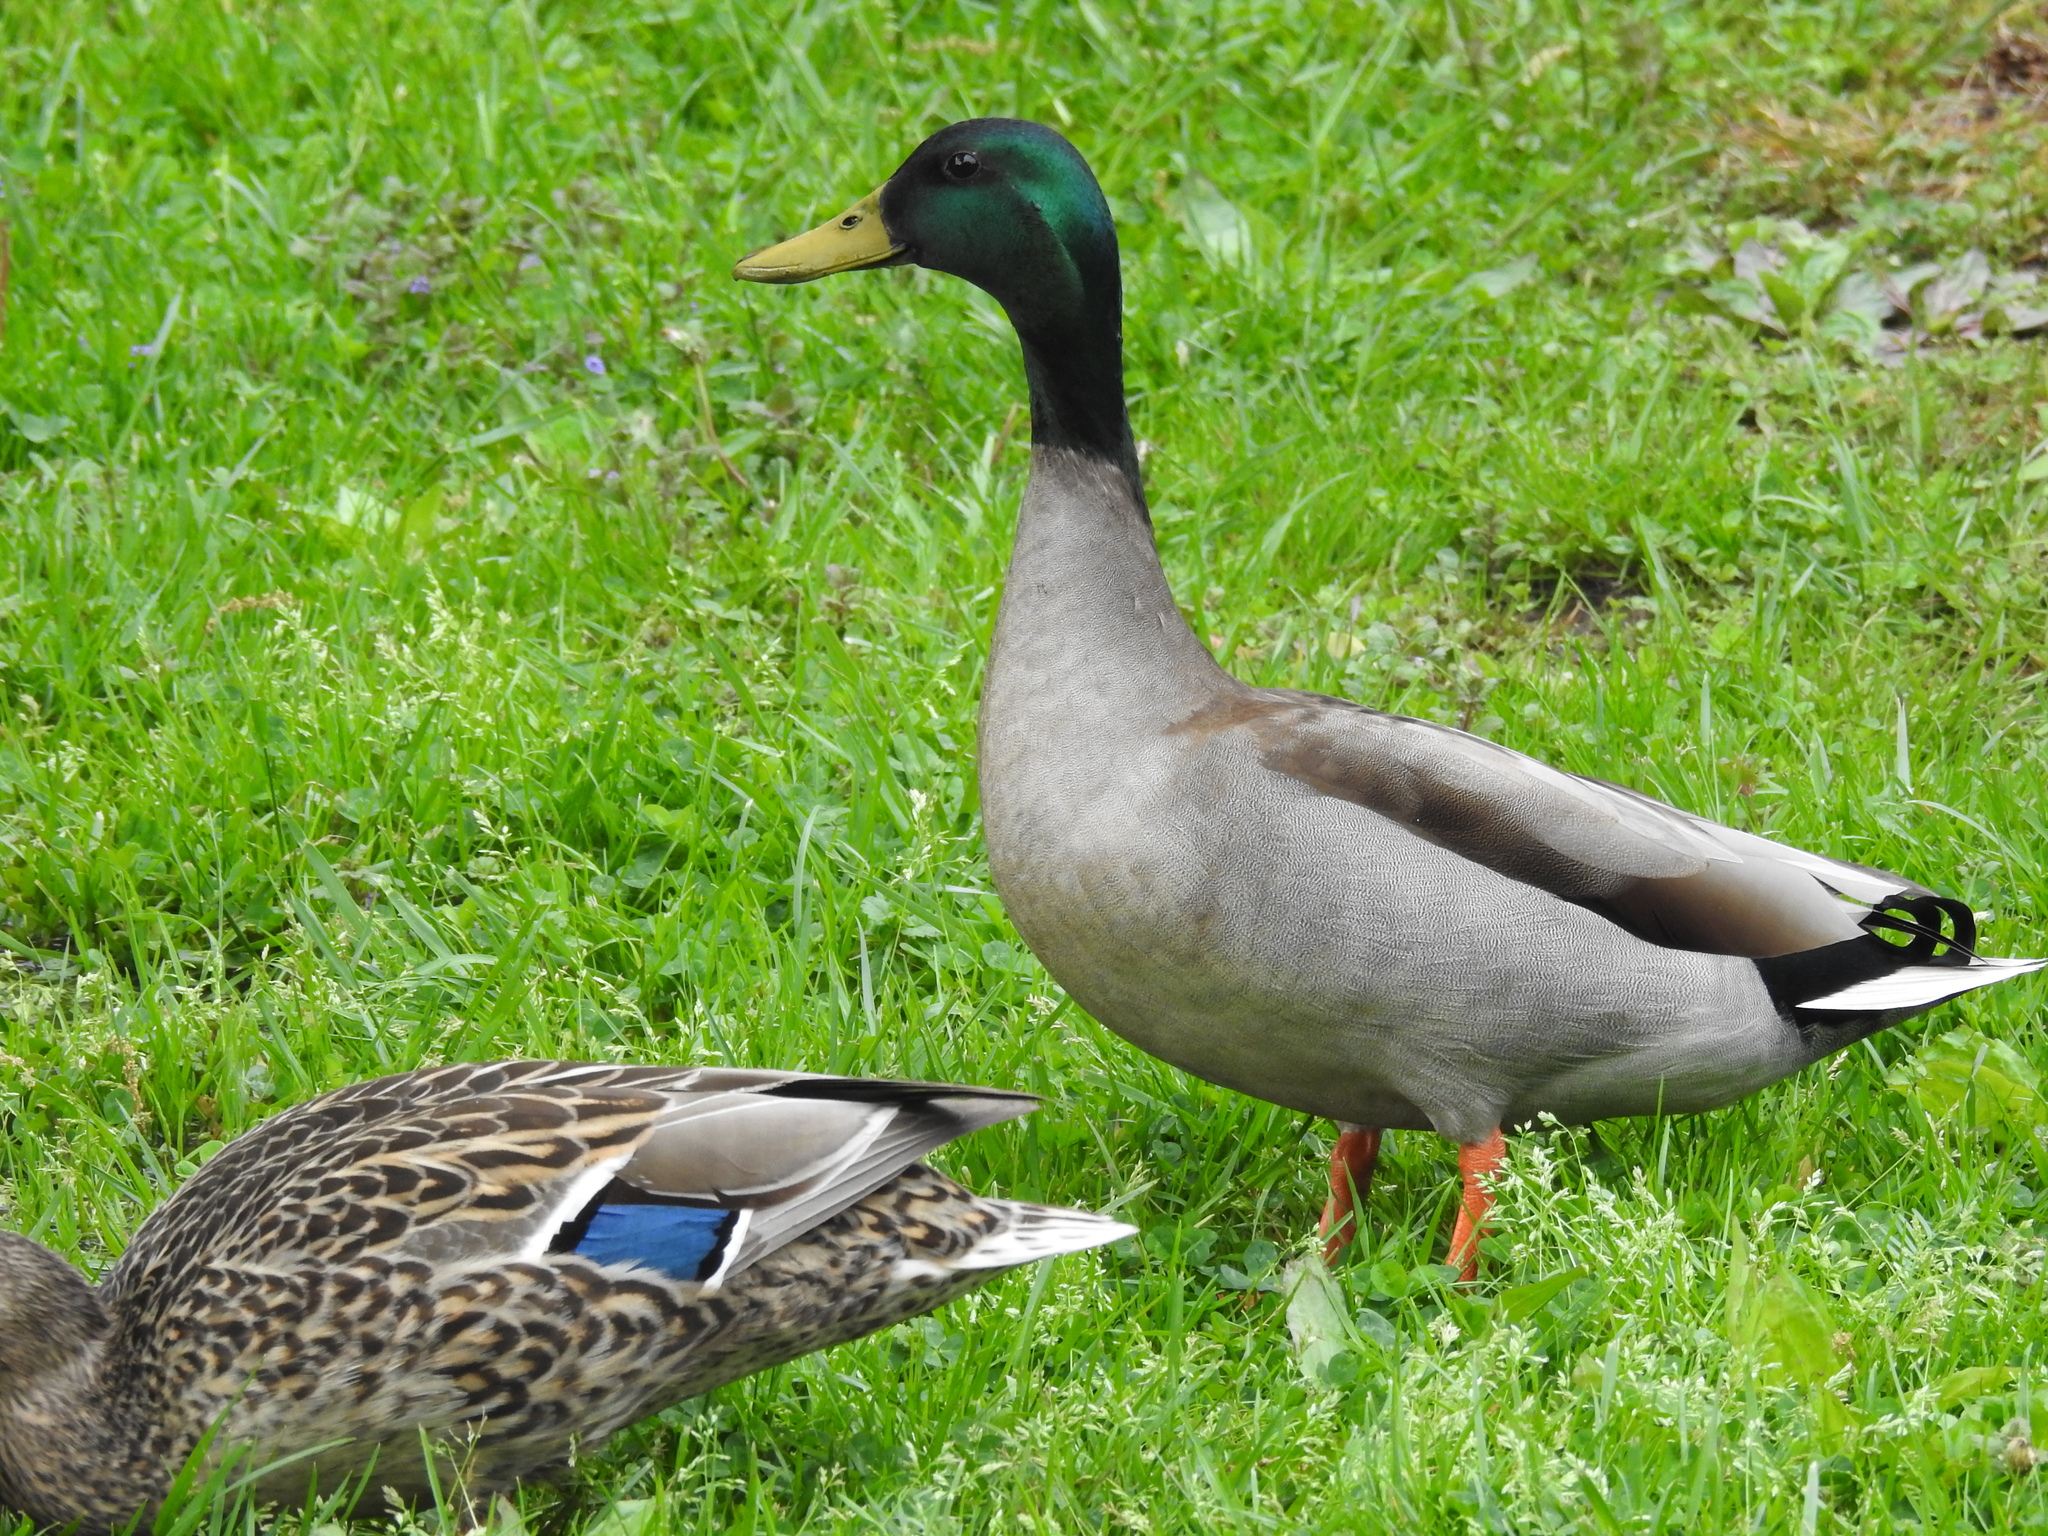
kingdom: Animalia
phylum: Chordata
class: Aves
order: Anseriformes
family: Anatidae
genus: Anas
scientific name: Anas platyrhynchos
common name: Mallard
